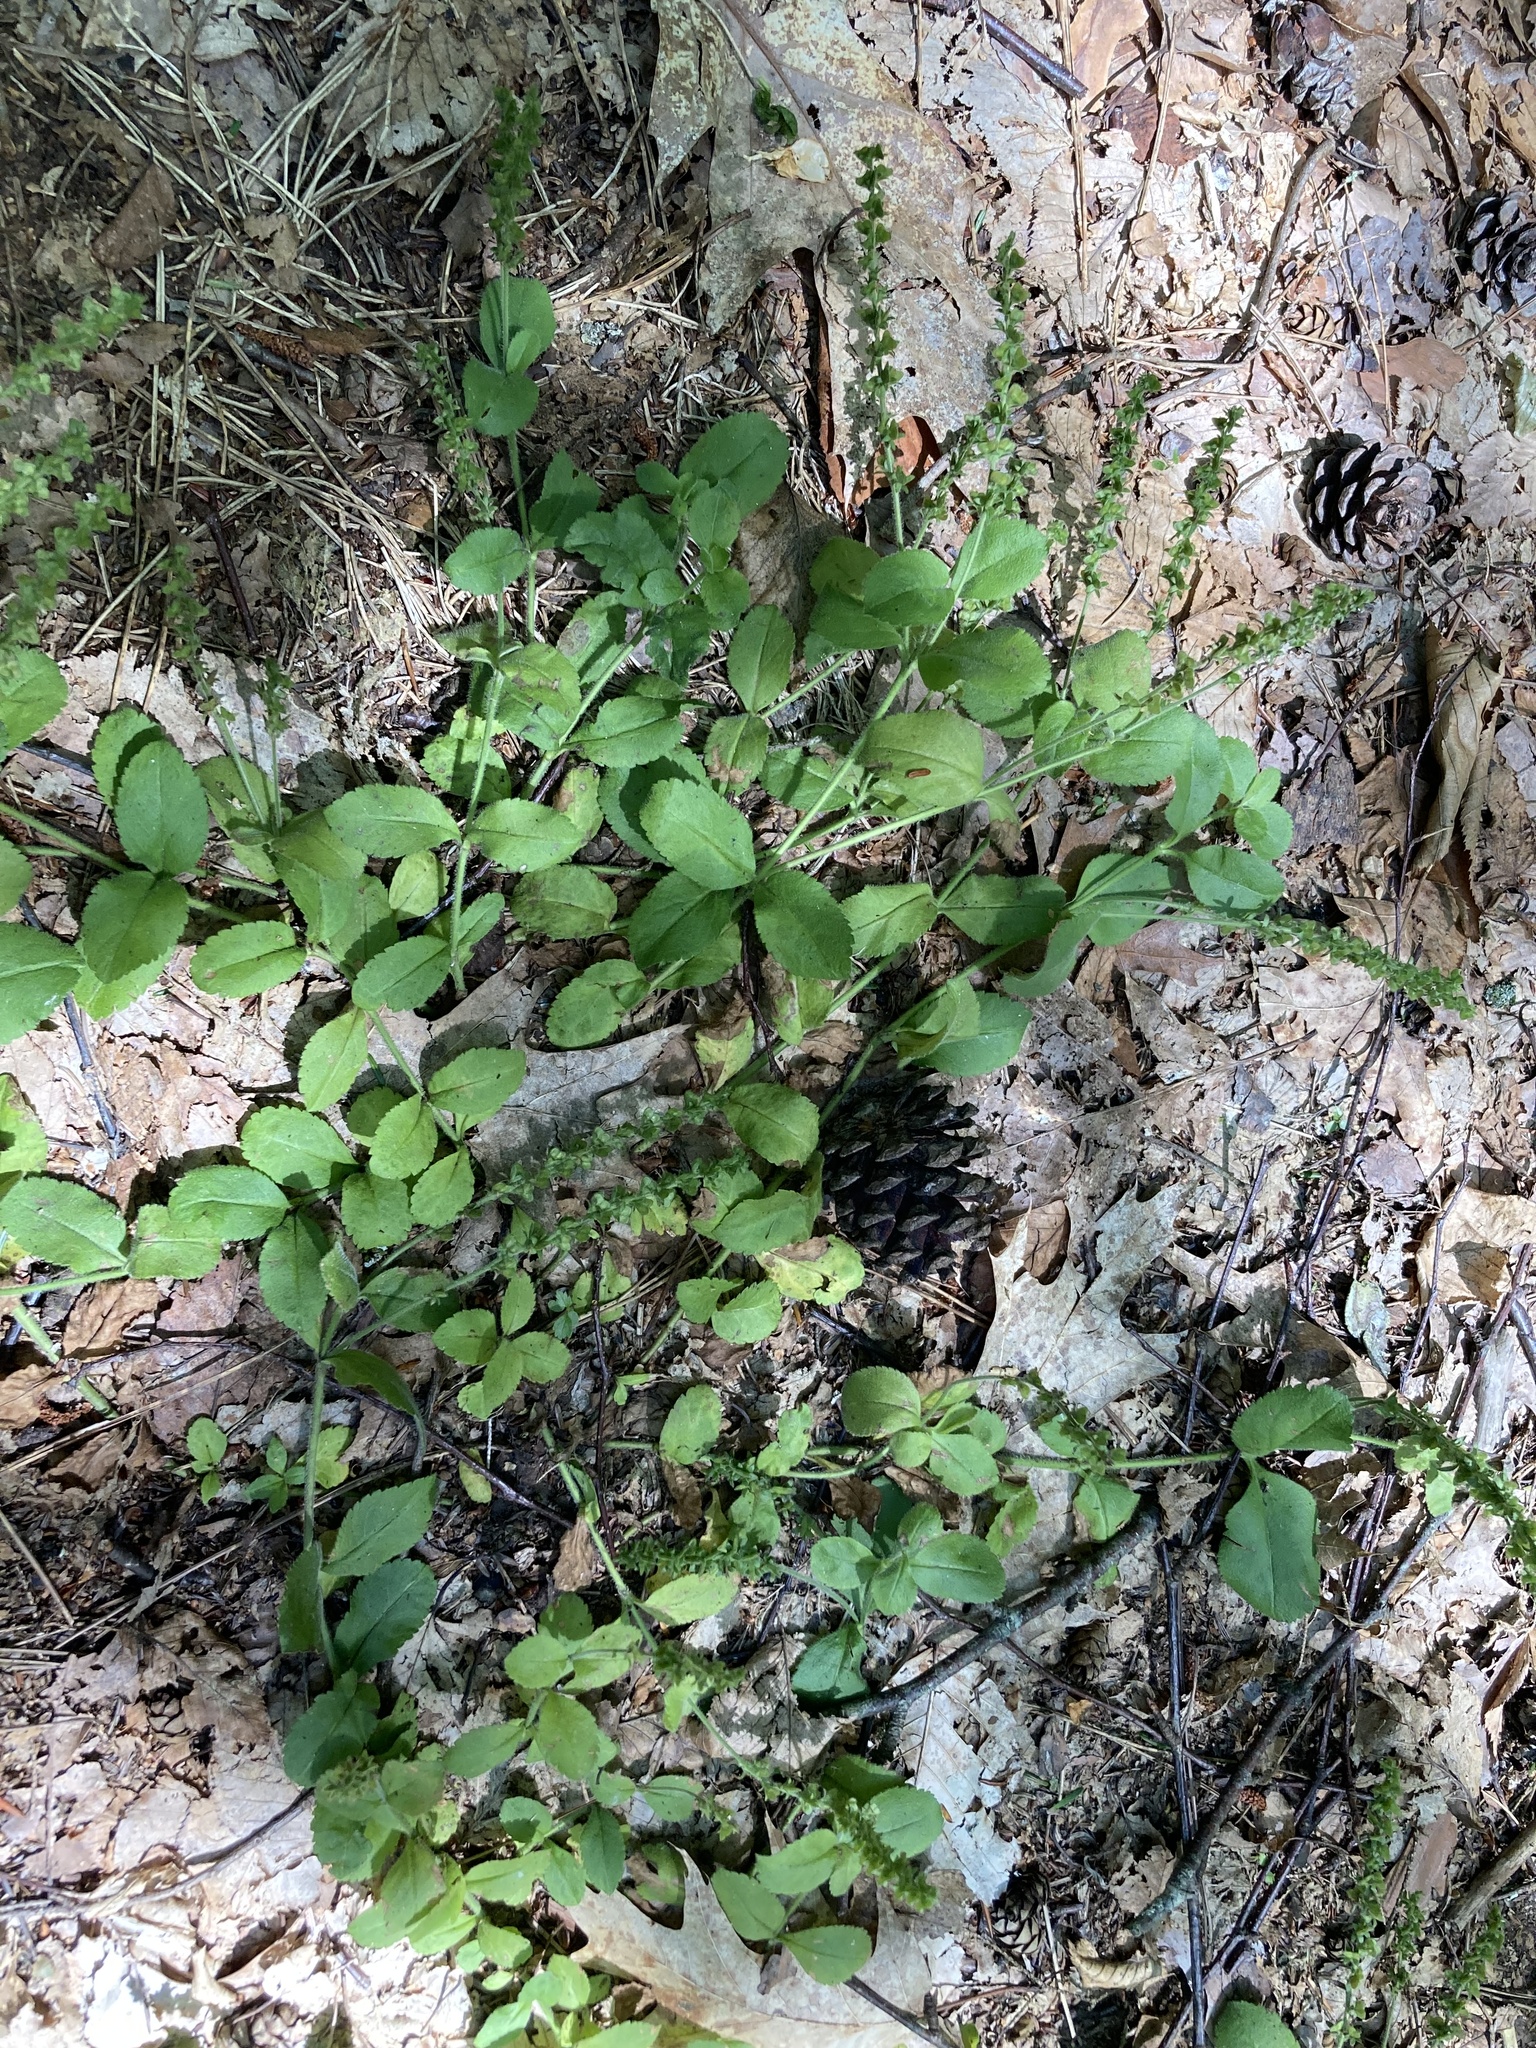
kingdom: Plantae
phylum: Tracheophyta
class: Magnoliopsida
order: Lamiales
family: Plantaginaceae
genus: Veronica
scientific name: Veronica officinalis
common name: Common speedwell
